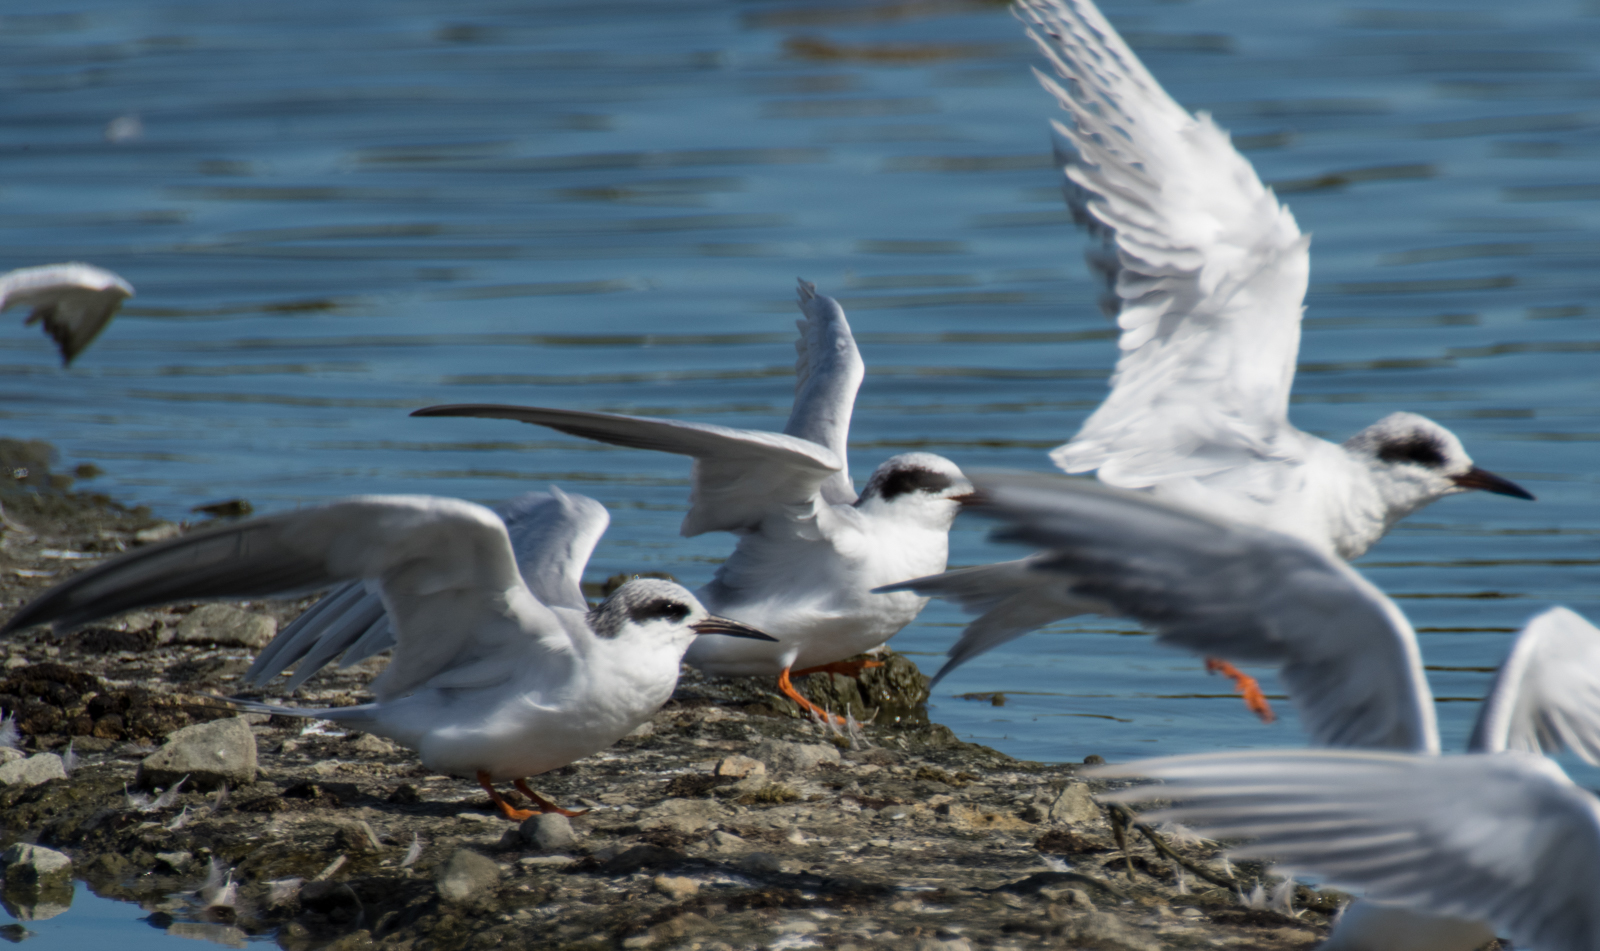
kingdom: Animalia
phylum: Chordata
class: Aves
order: Charadriiformes
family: Laridae
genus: Sterna
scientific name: Sterna forsteri
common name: Forster's tern
